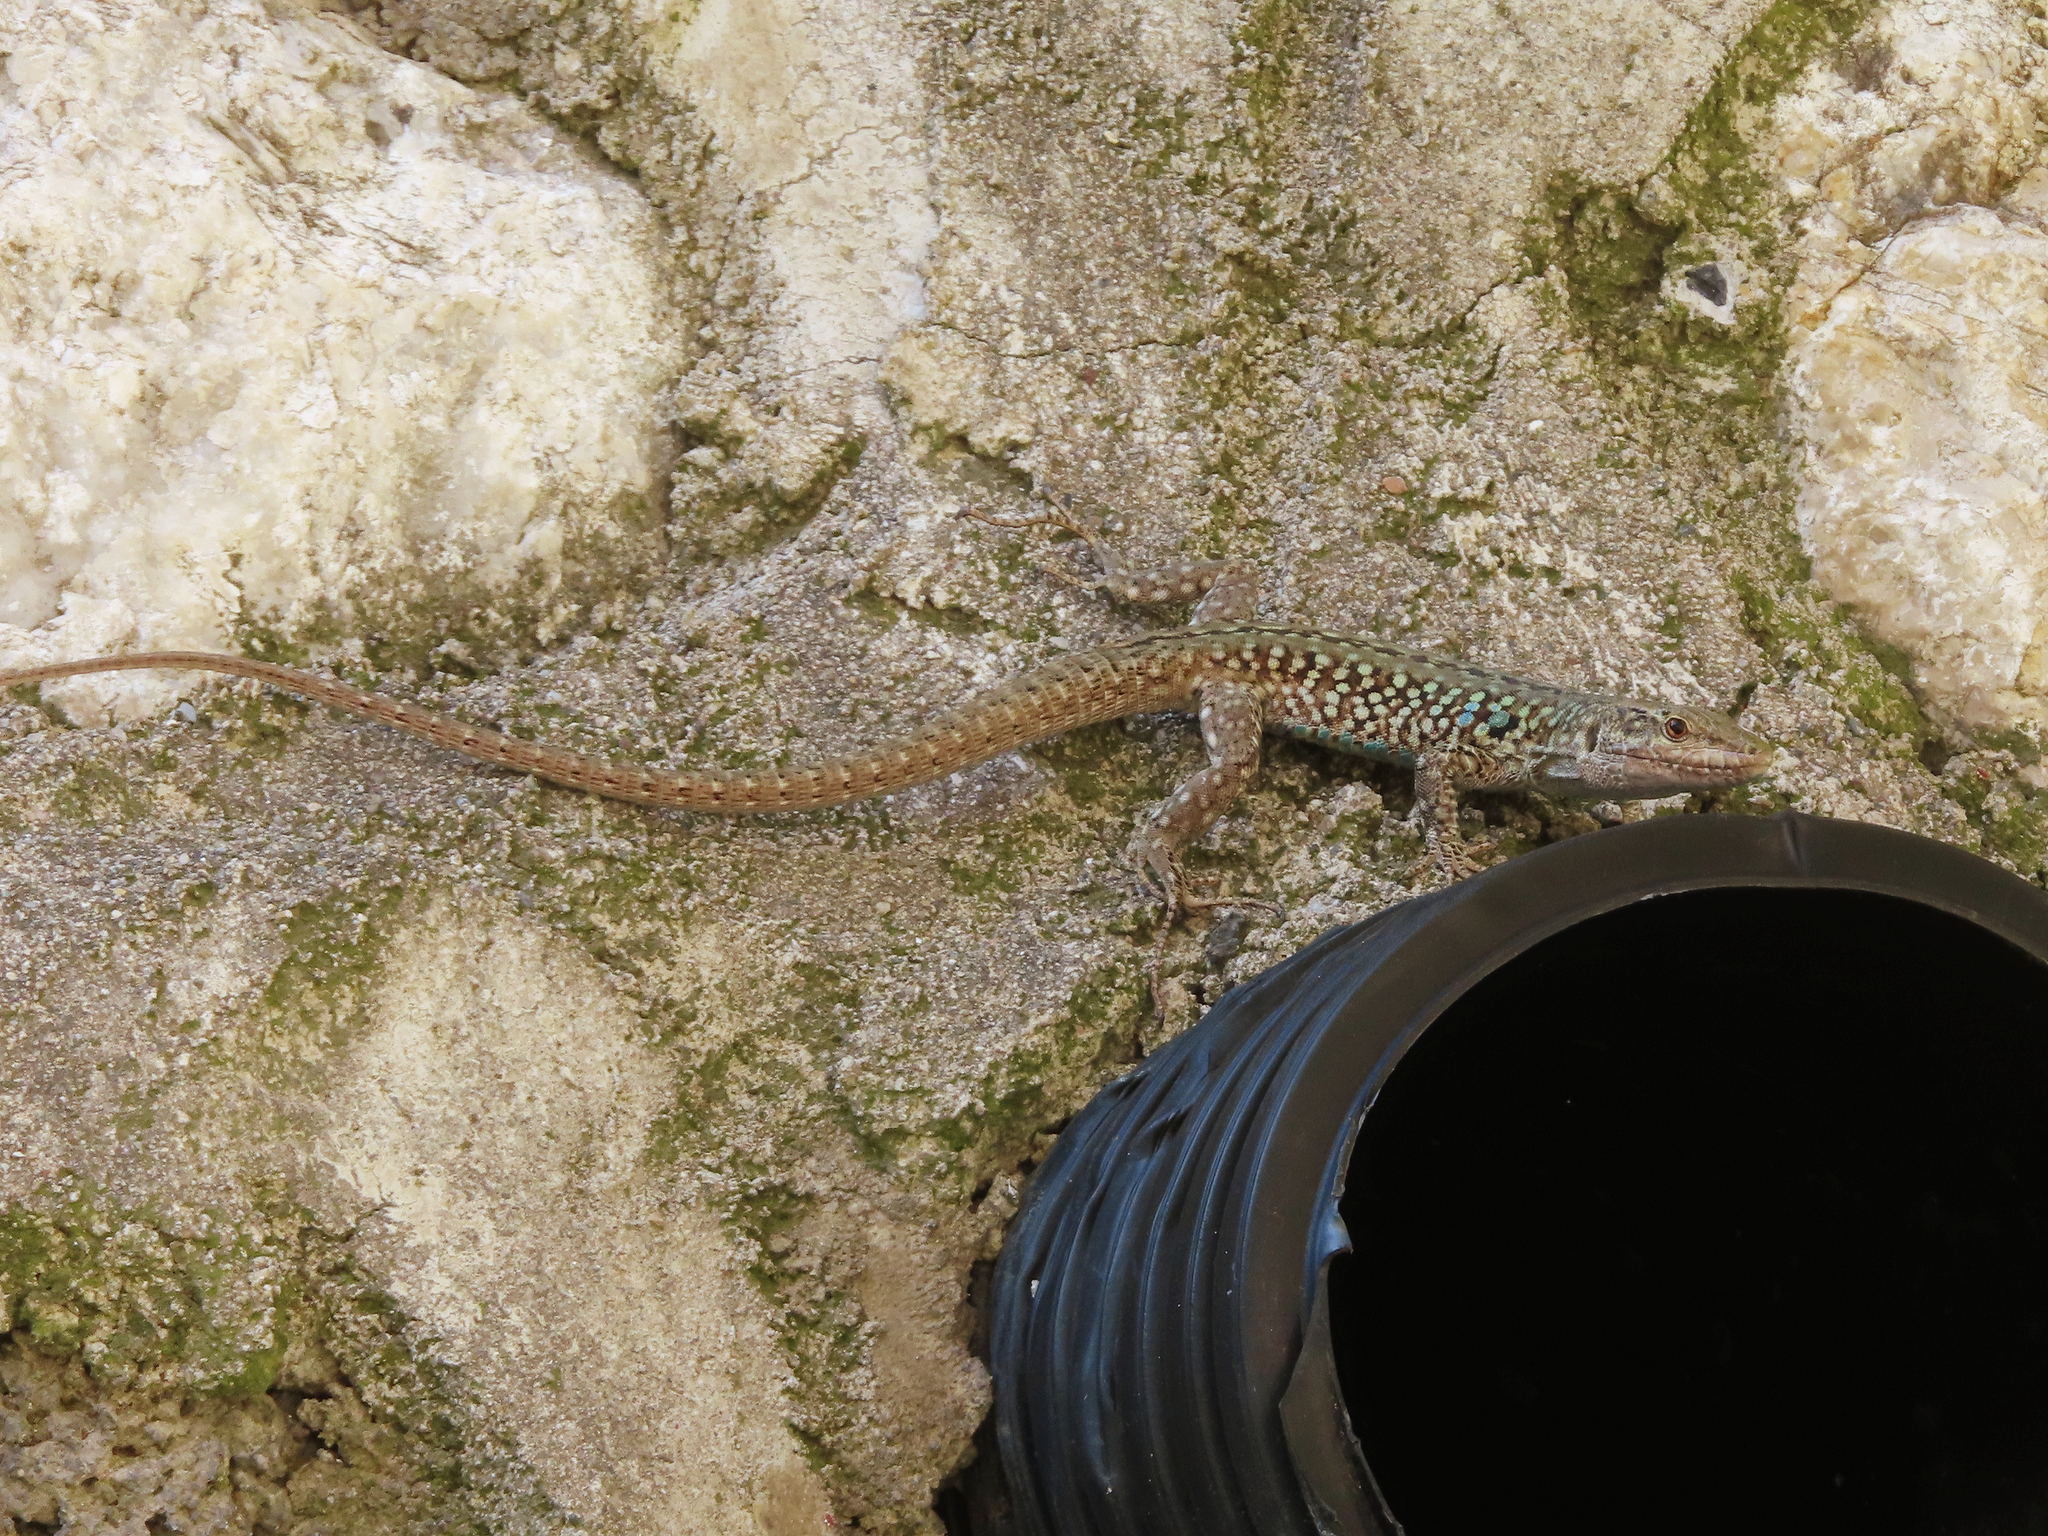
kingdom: Animalia
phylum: Chordata
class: Squamata
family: Lacertidae
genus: Podarcis
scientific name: Podarcis siculus
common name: Italian wall lizard
